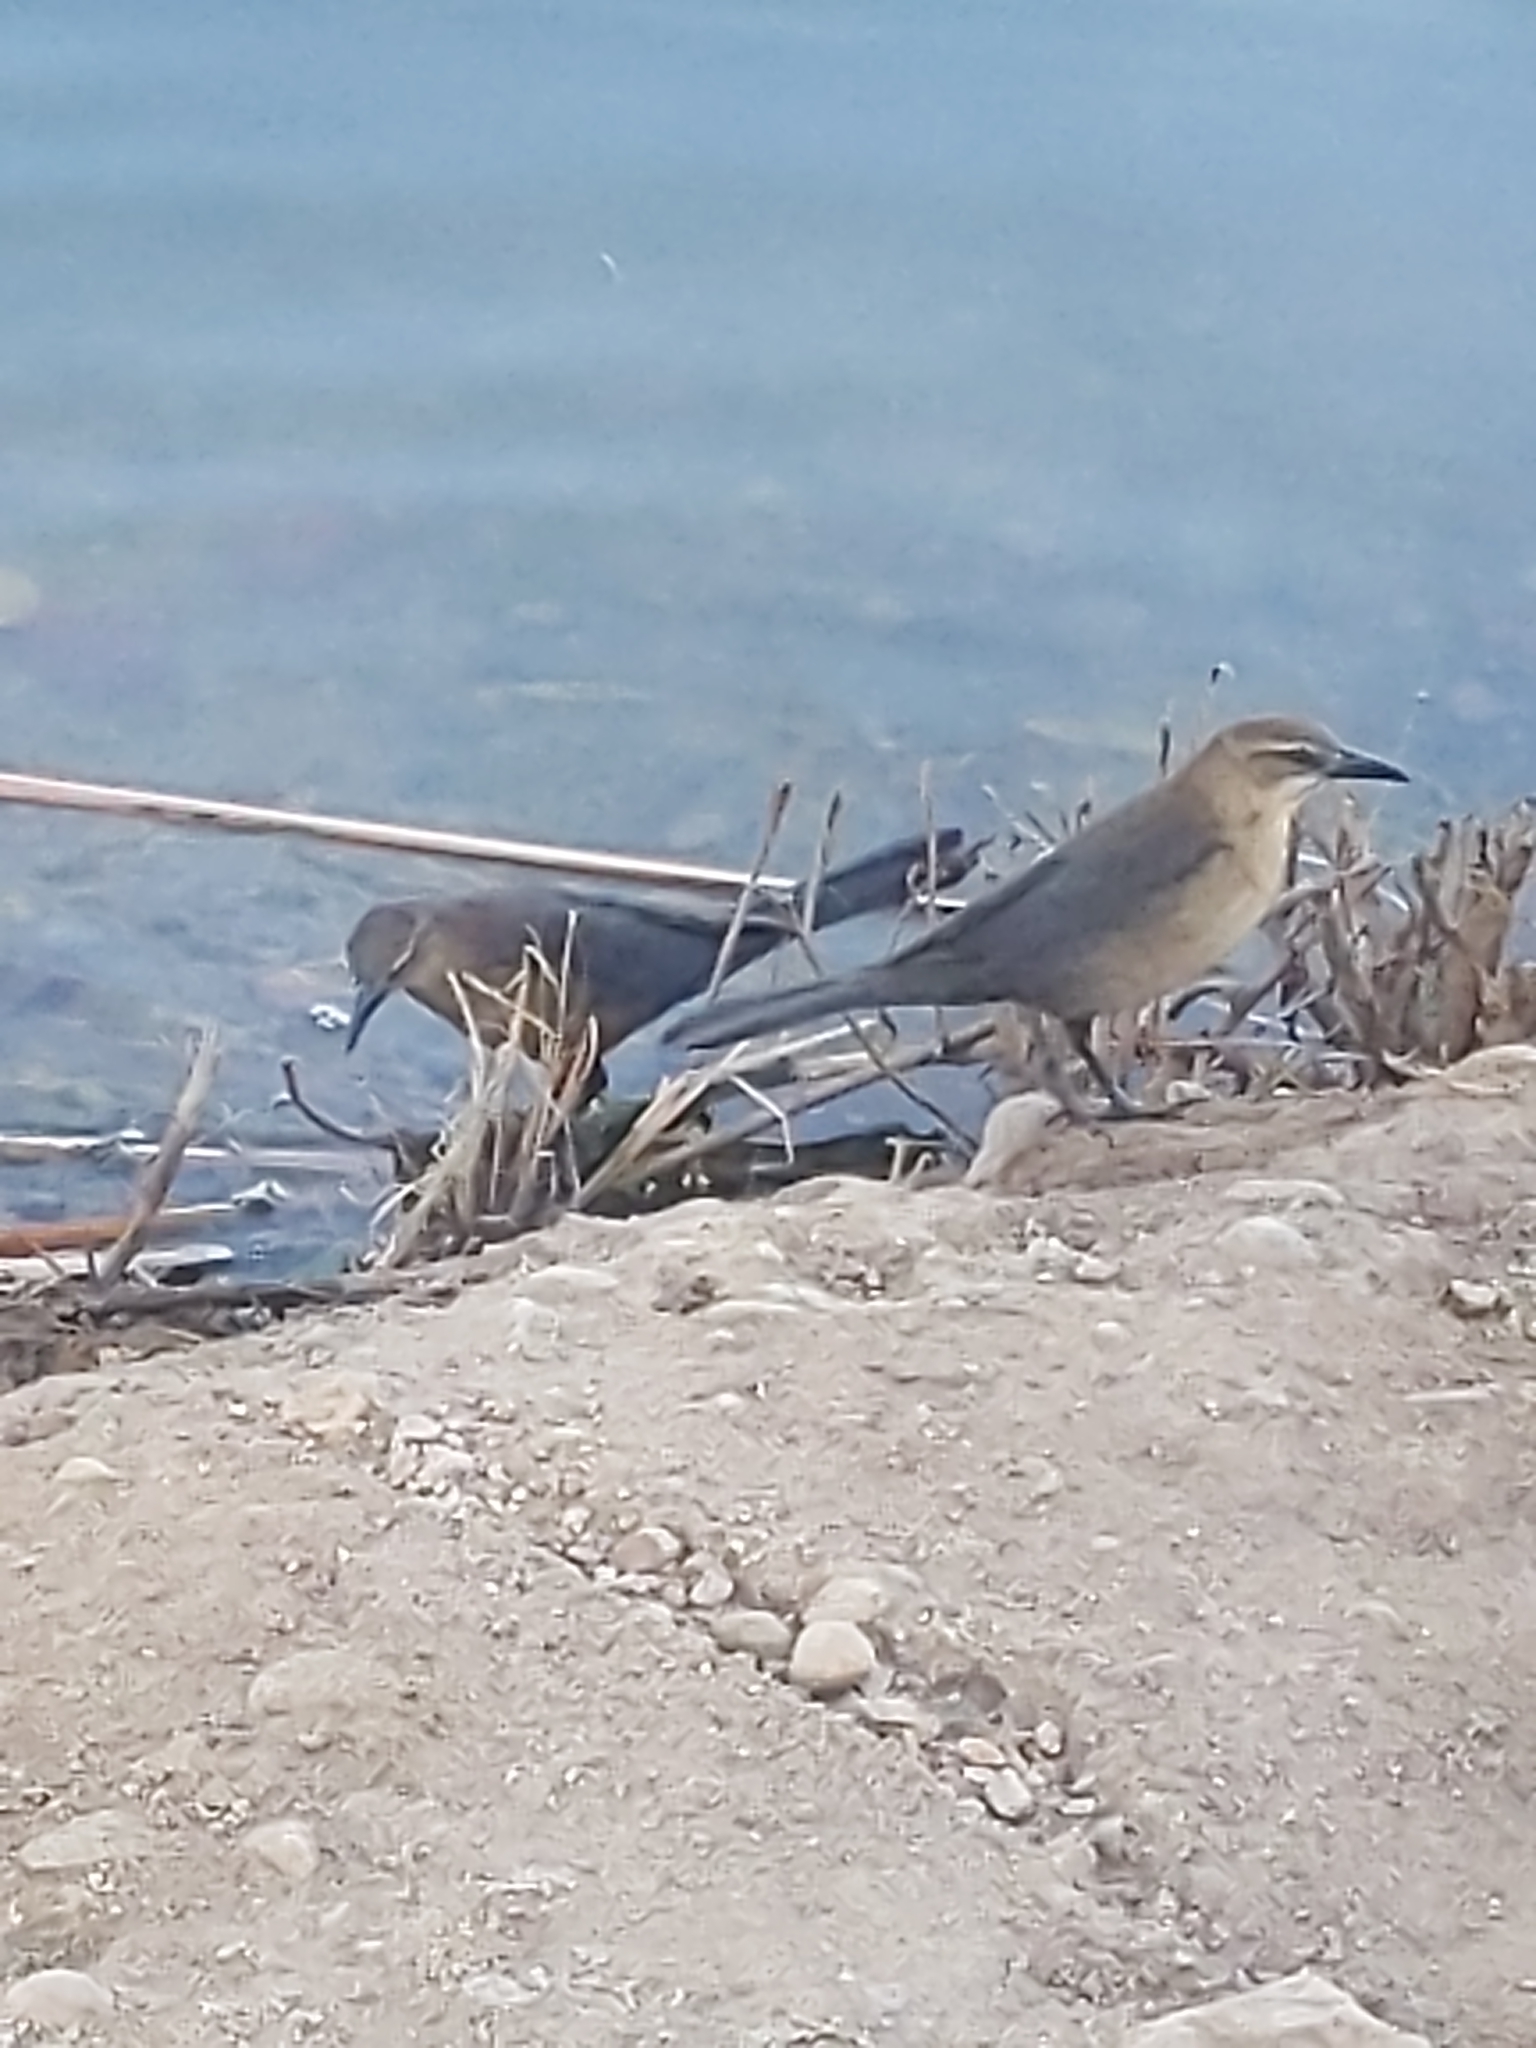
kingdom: Animalia
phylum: Chordata
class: Aves
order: Passeriformes
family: Icteridae
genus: Quiscalus
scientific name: Quiscalus mexicanus
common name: Great-tailed grackle
